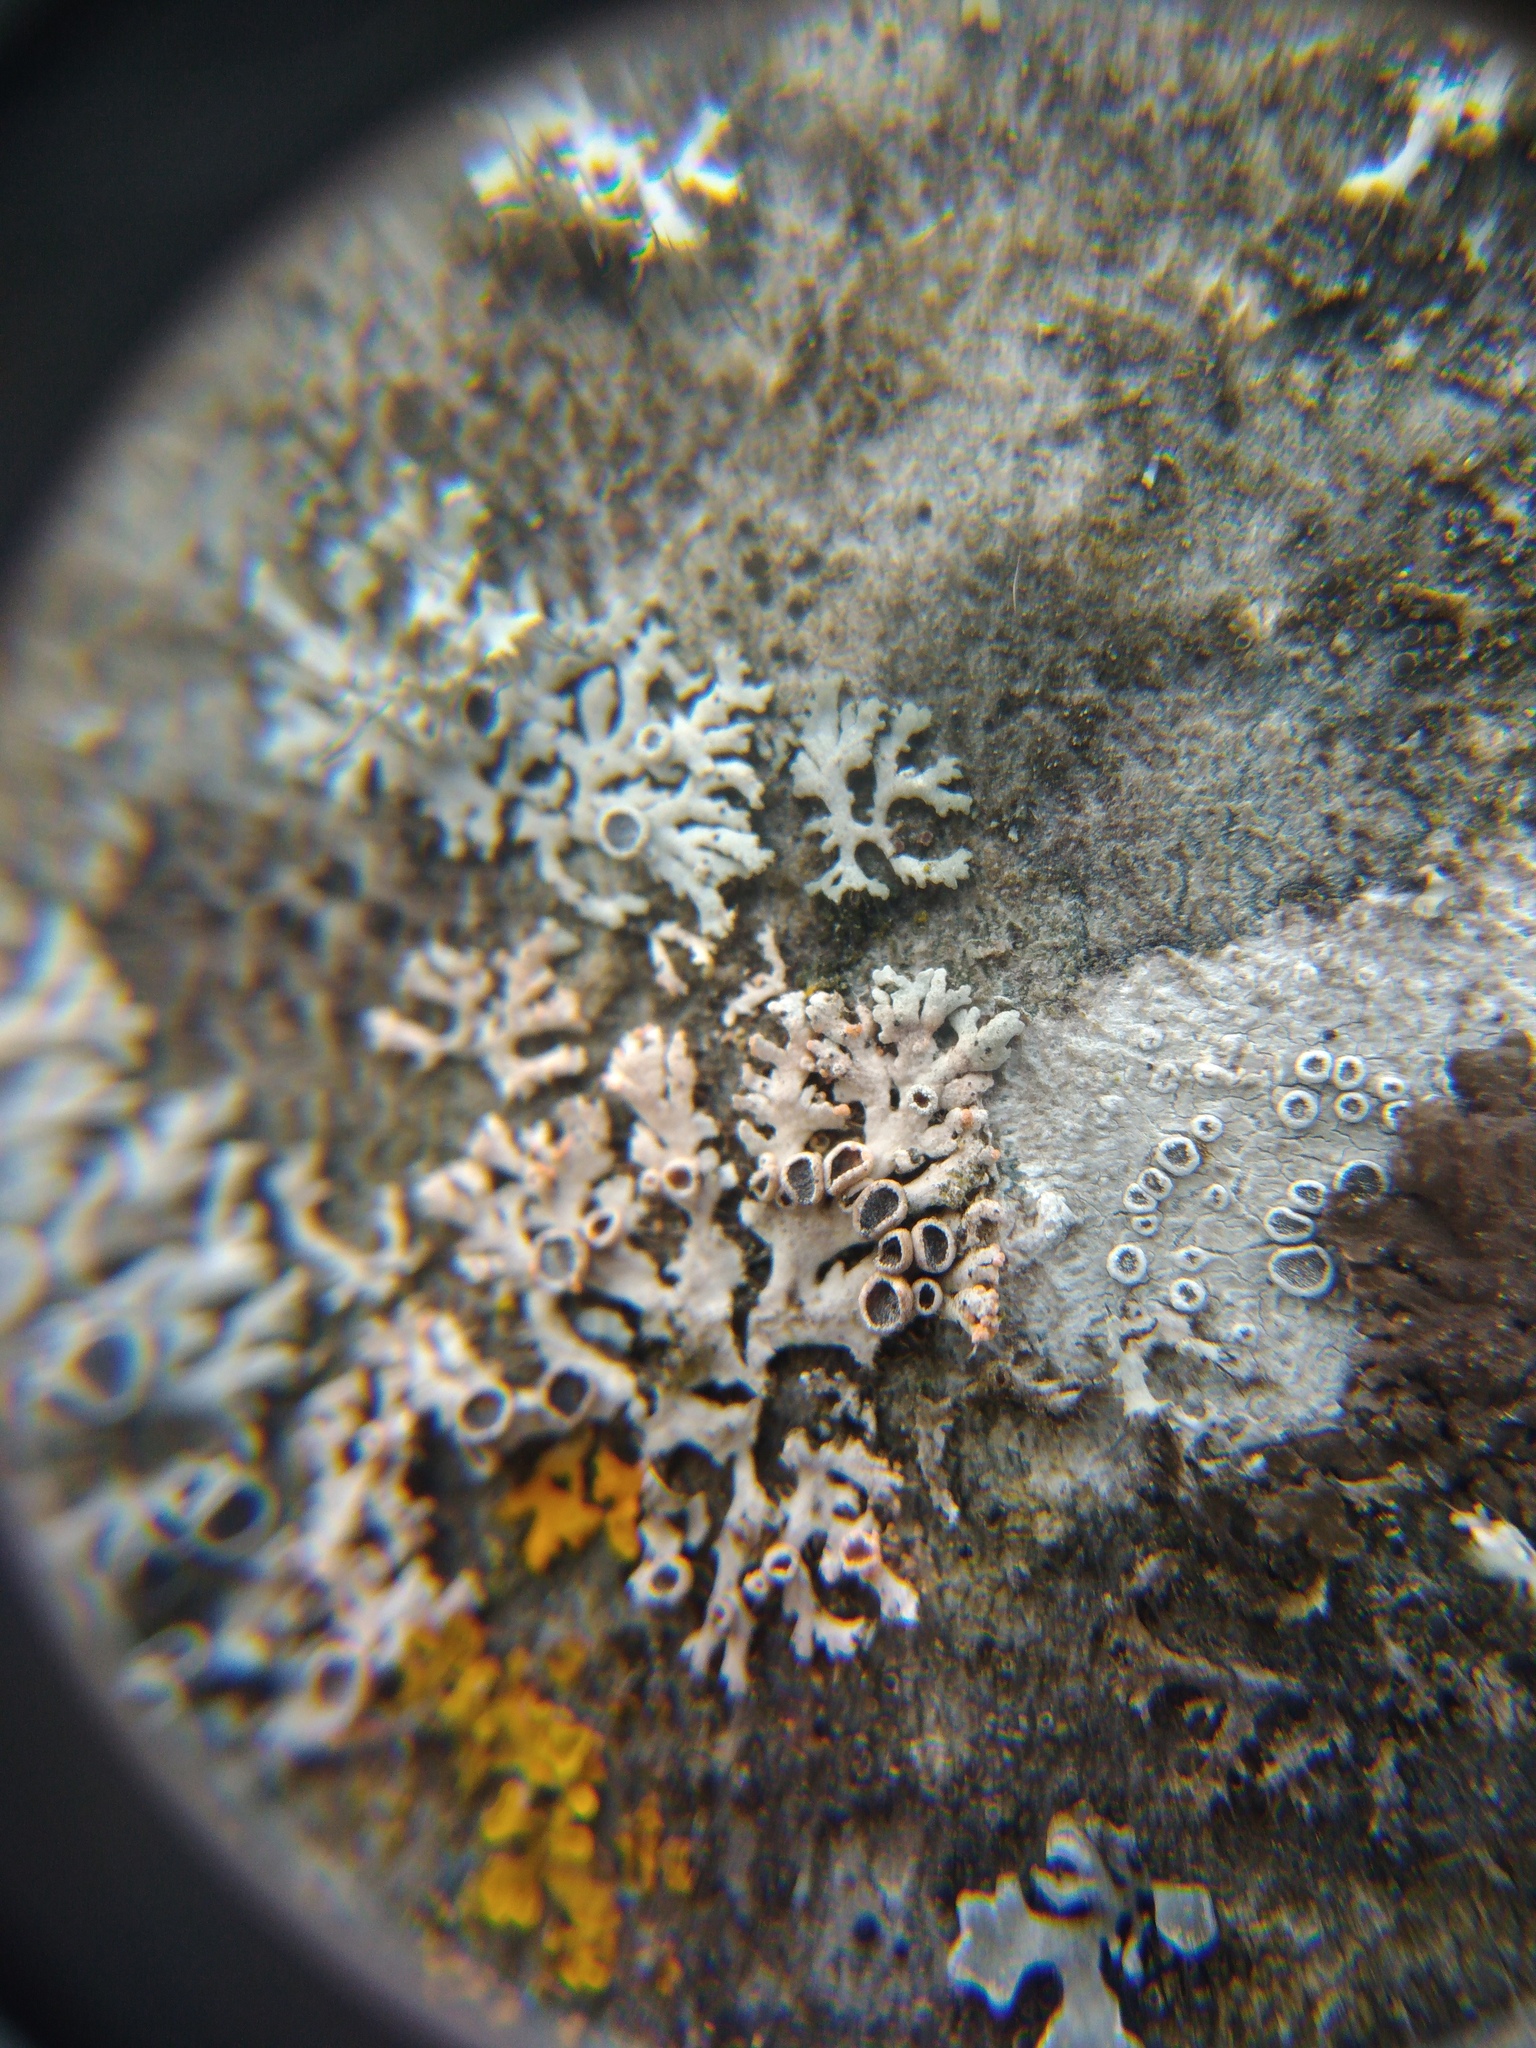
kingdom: Fungi
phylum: Basidiomycota
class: Agaricomycetes
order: Corticiales
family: Corticiaceae
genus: Erythricium
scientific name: Erythricium aurantiacum
